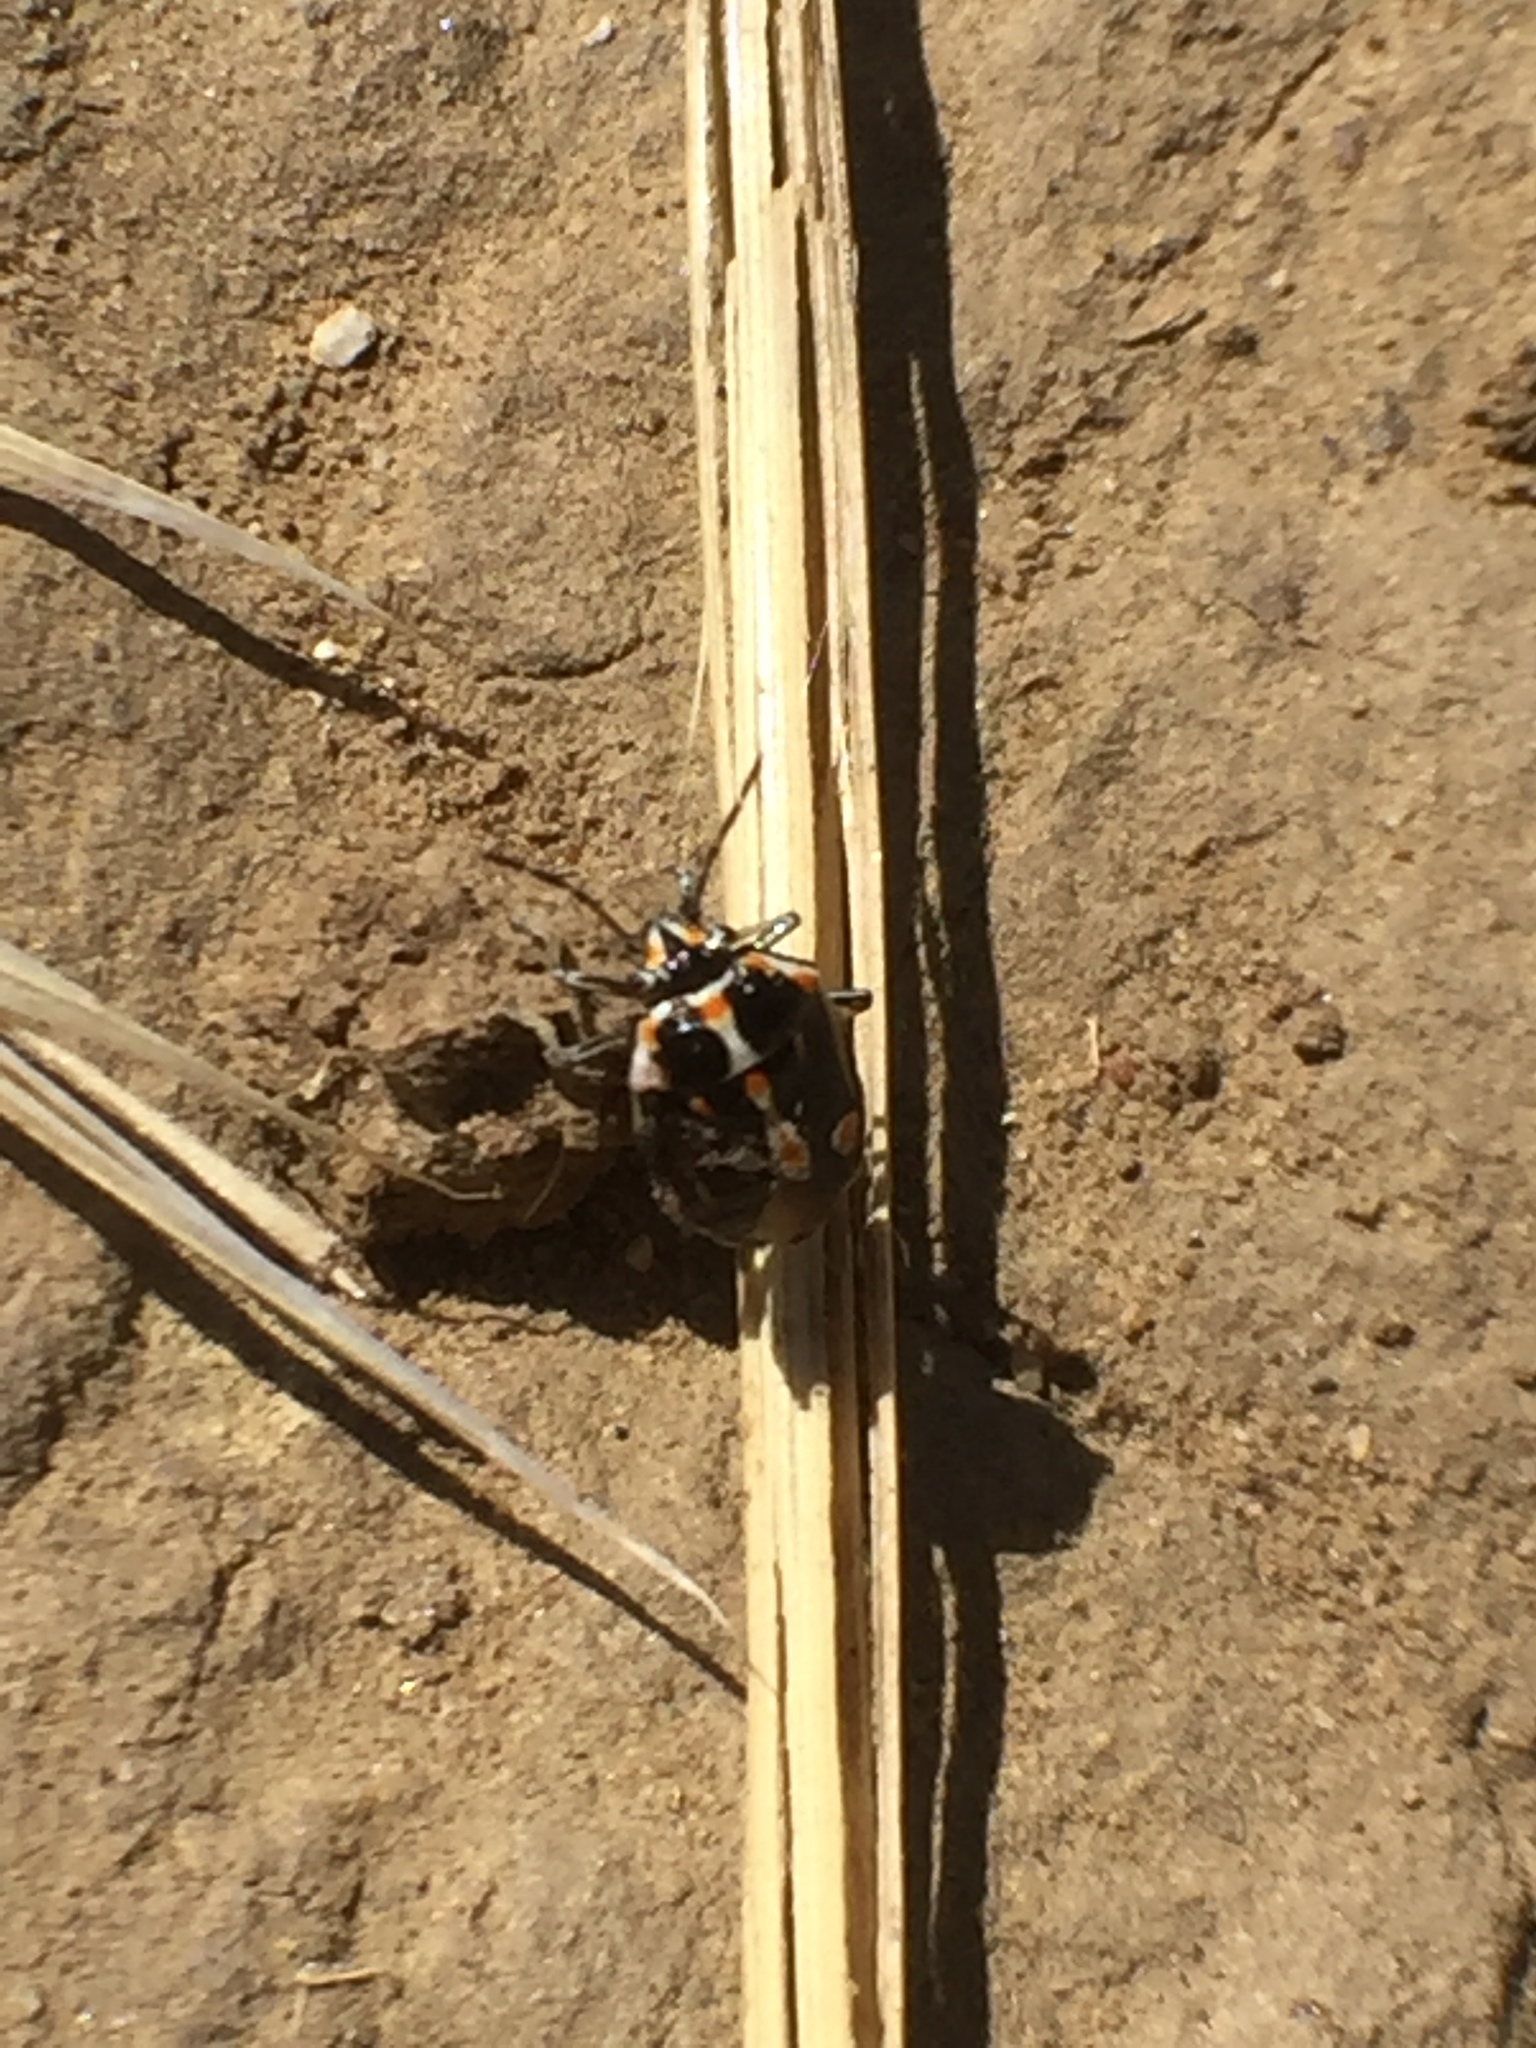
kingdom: Animalia
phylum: Arthropoda
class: Insecta
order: Hemiptera
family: Pentatomidae
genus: Bagrada
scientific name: Bagrada hilaris
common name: Bagrada bug
